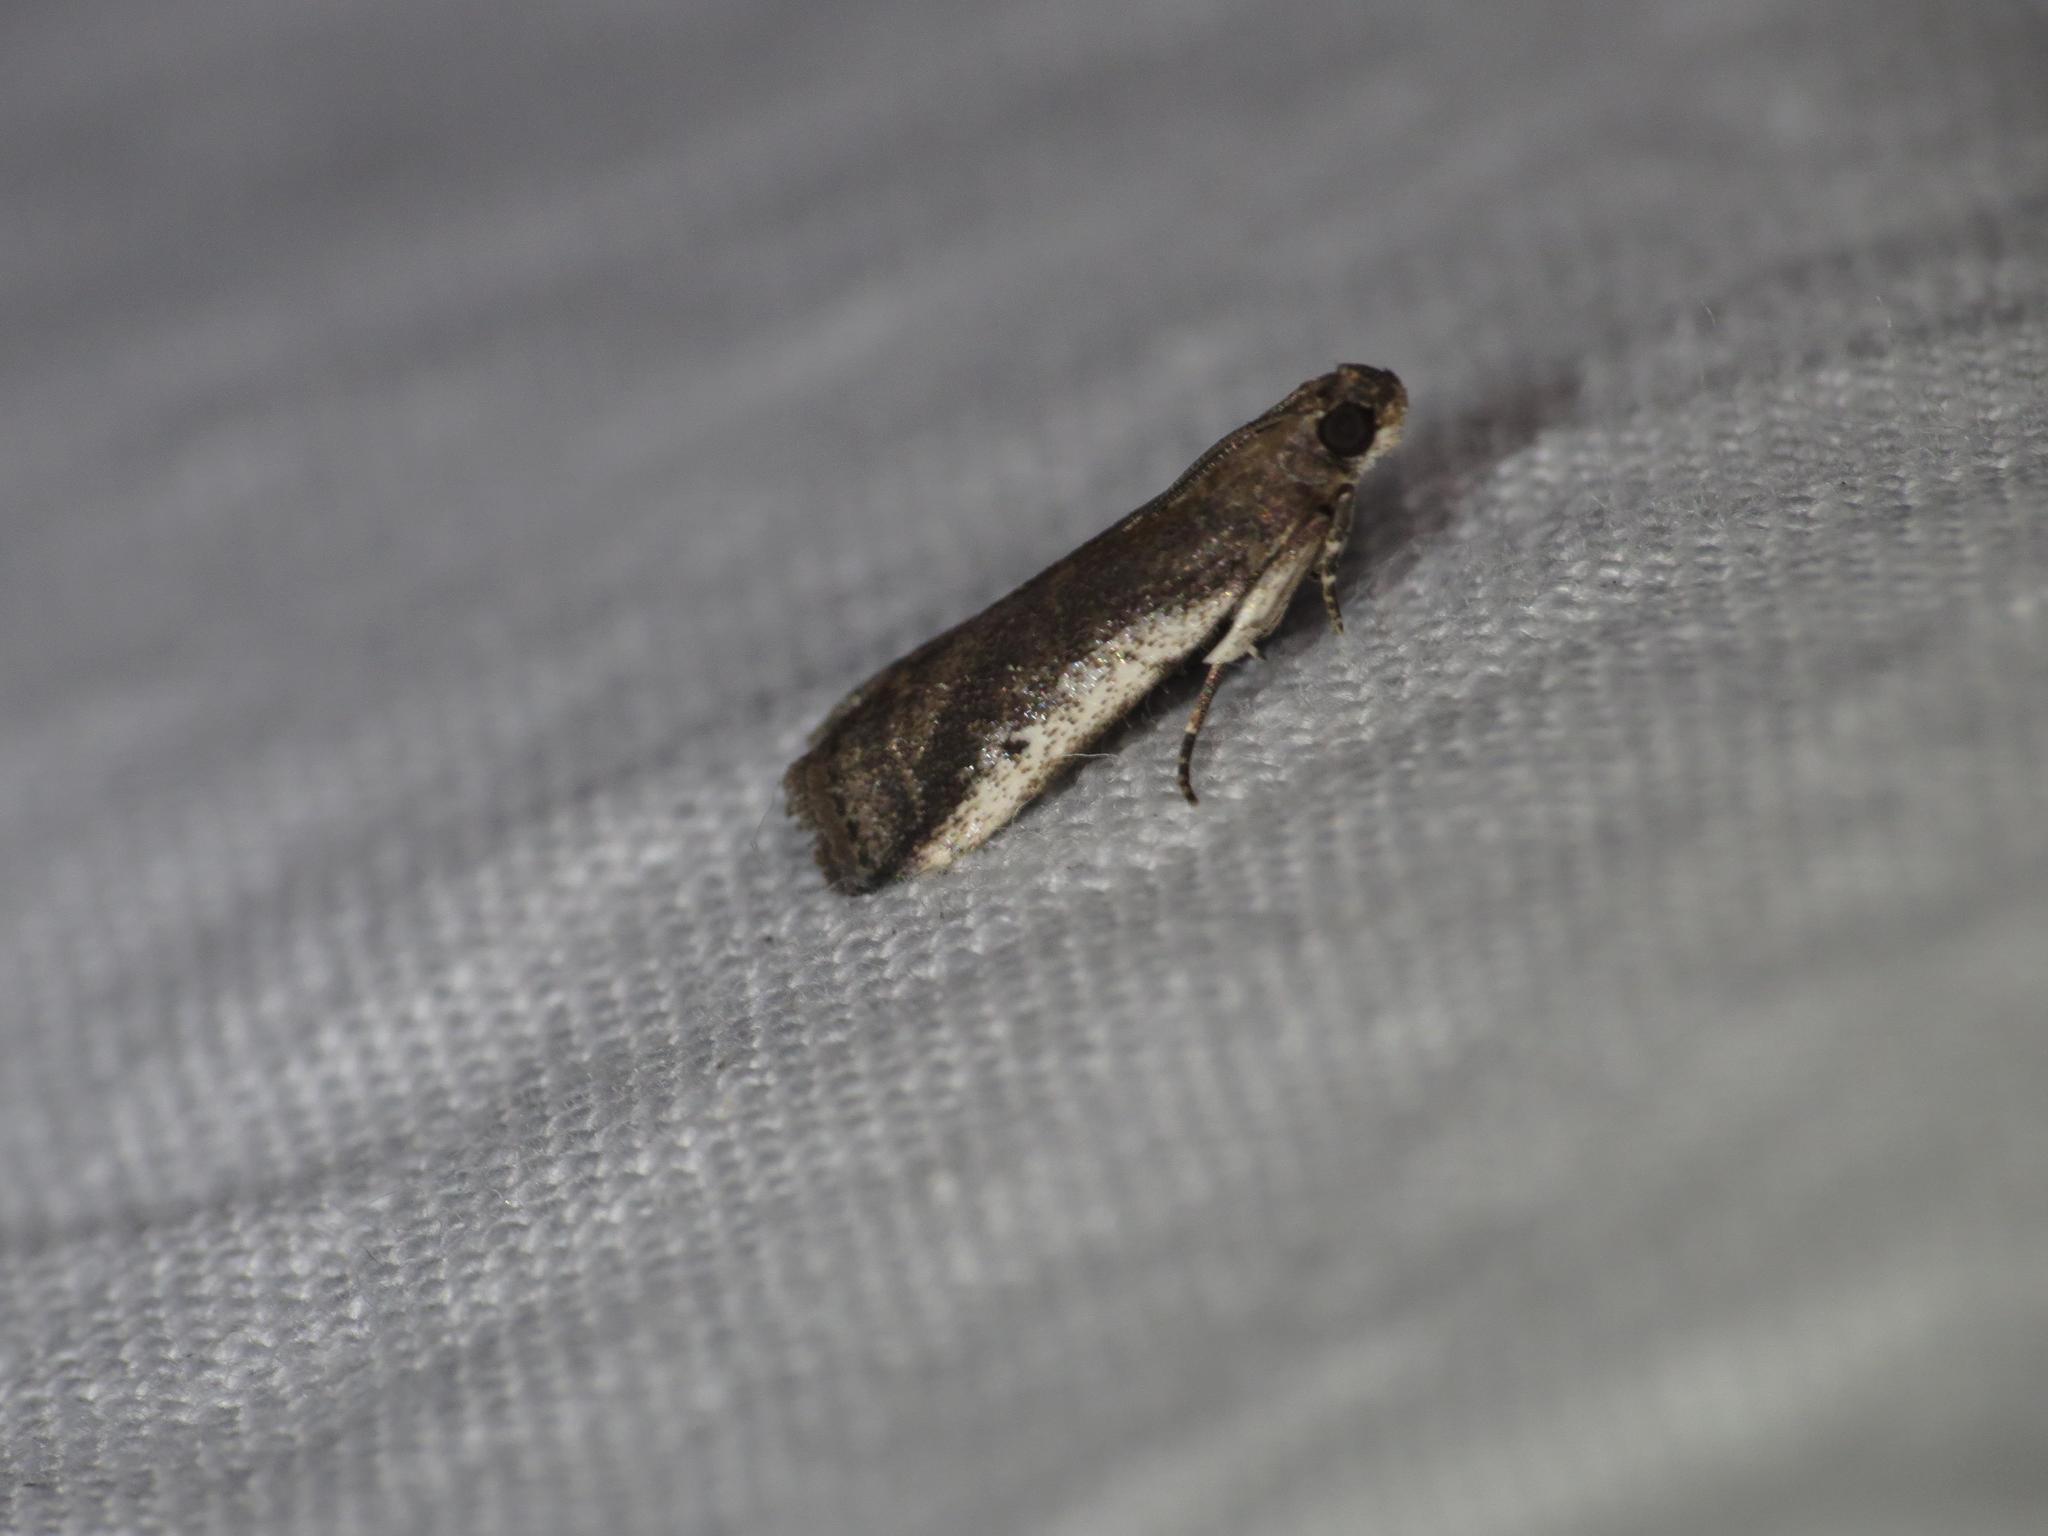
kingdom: Animalia
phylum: Arthropoda
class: Insecta
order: Lepidoptera
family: Pyralidae
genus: Assara
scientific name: Assara subarcuella
